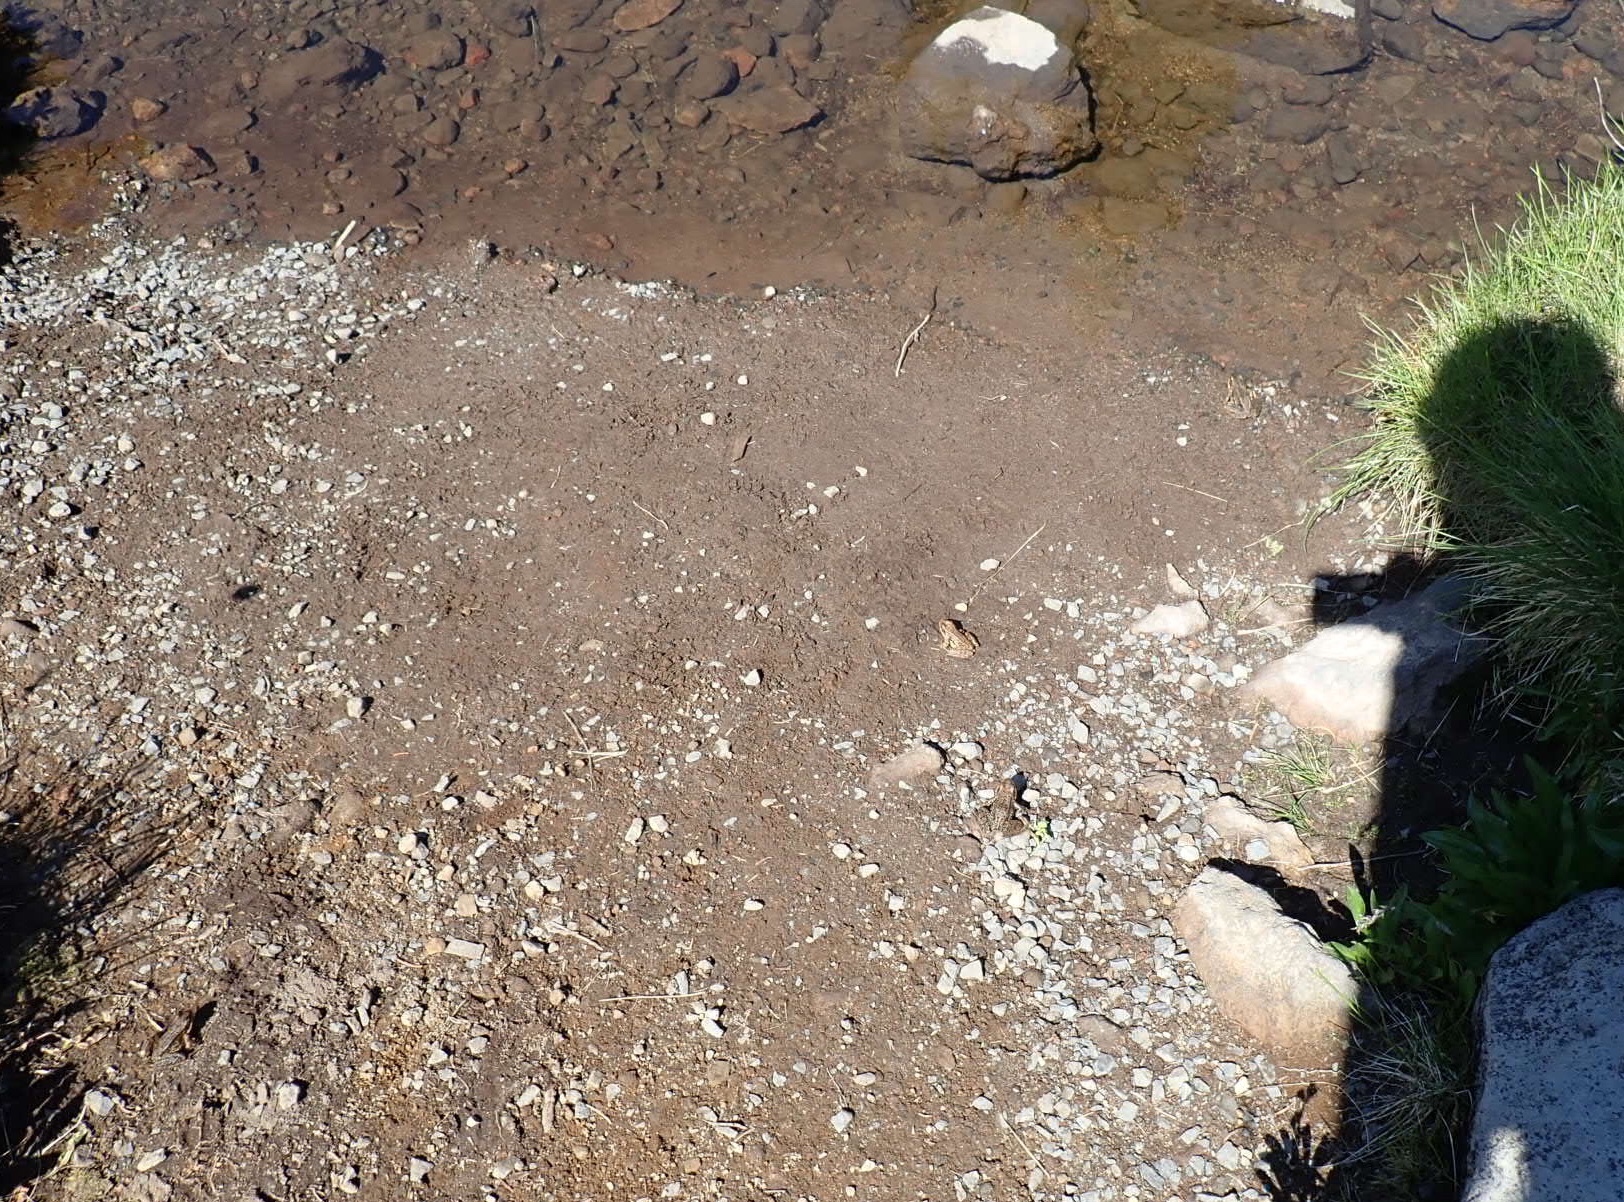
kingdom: Animalia
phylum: Chordata
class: Amphibia
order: Anura
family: Ranidae
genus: Rana
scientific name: Rana cascadae
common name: Cascades frog
